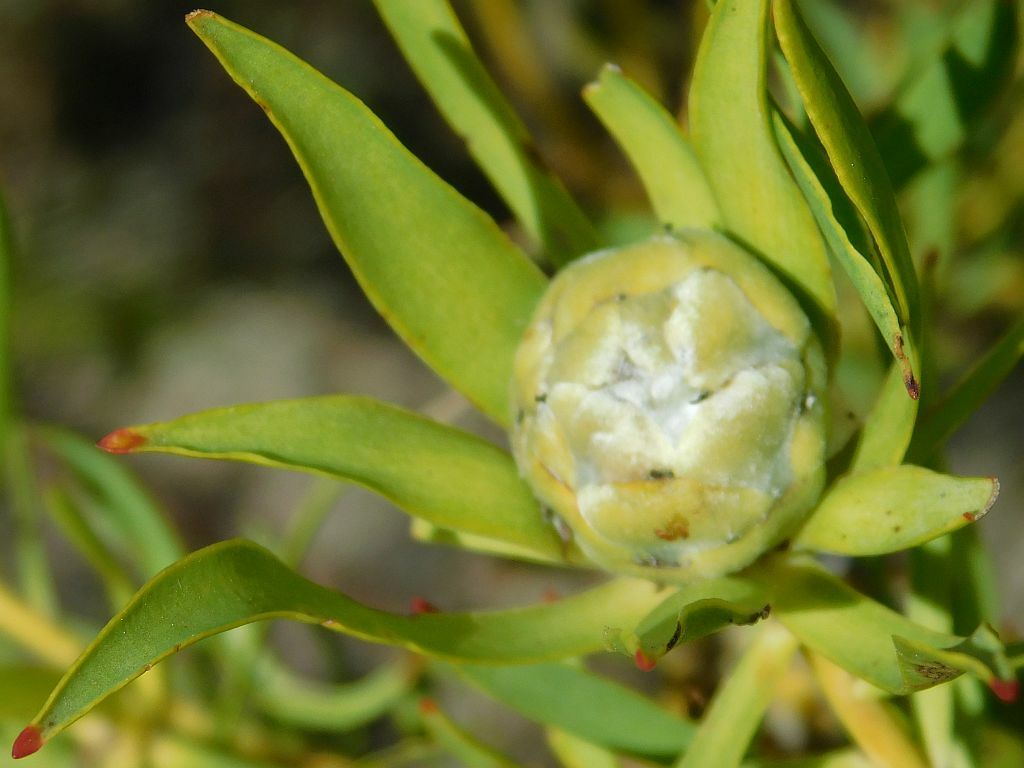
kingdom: Plantae
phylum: Tracheophyta
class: Magnoliopsida
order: Proteales
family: Proteaceae
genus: Leucadendron
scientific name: Leucadendron salignum
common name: Common sunshine conebush
